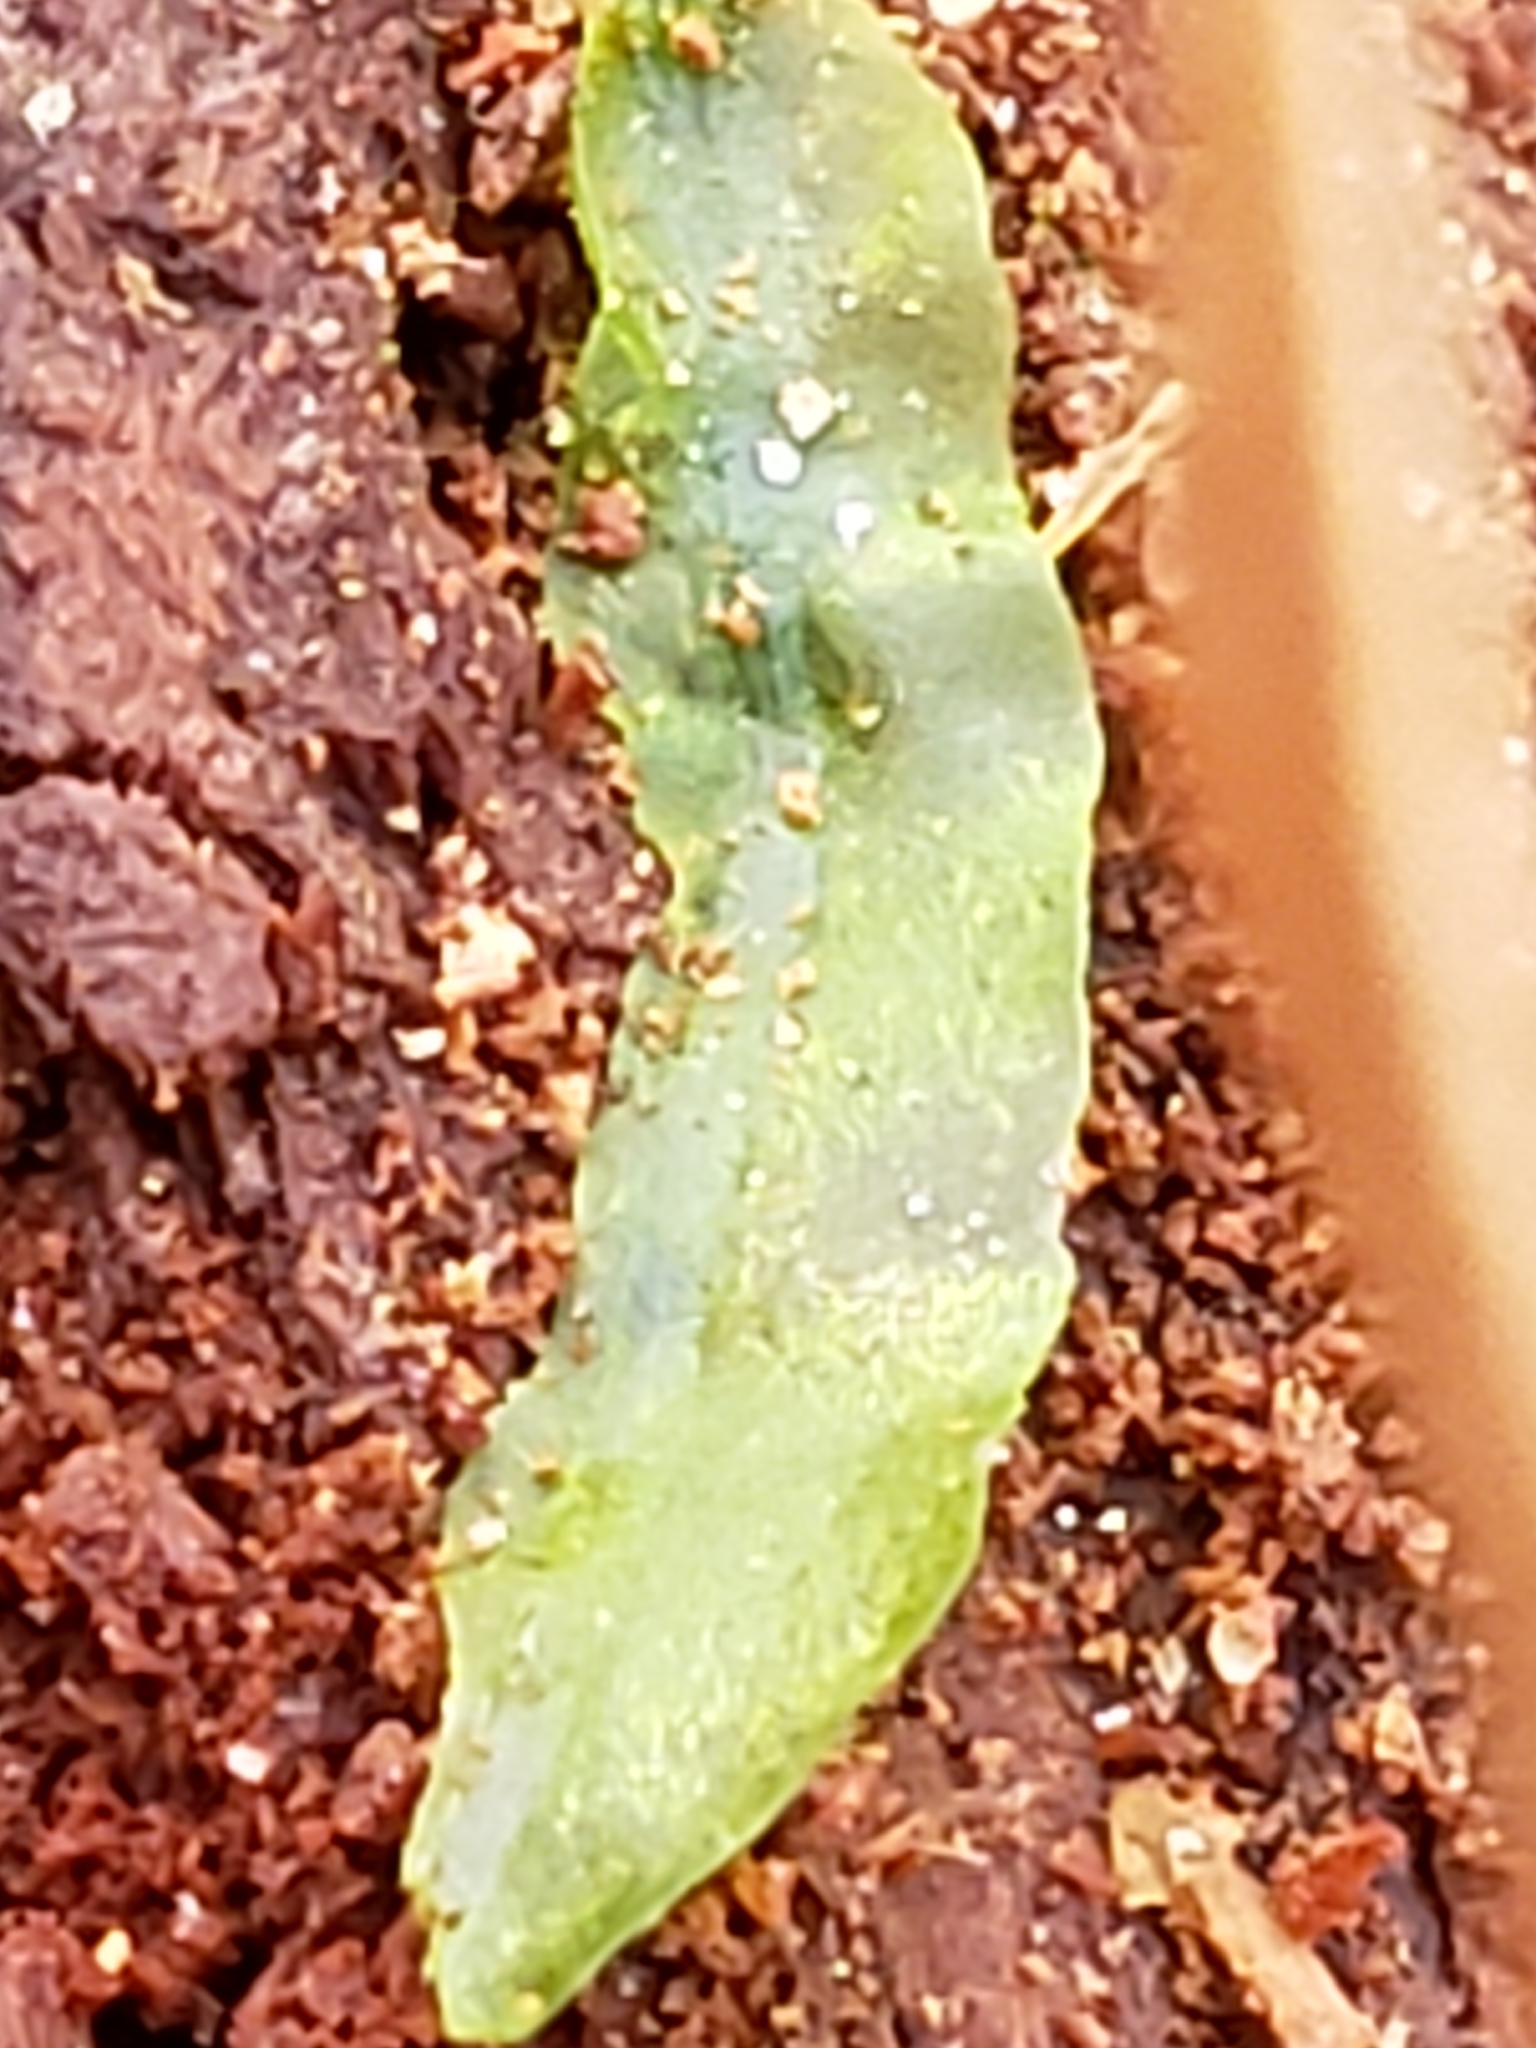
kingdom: Plantae
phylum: Marchantiophyta
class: Jungermanniopsida
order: Pallaviciniales
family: Pallaviciniaceae
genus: Pallavicinia
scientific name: Pallavicinia lyellii
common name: Veilwort
